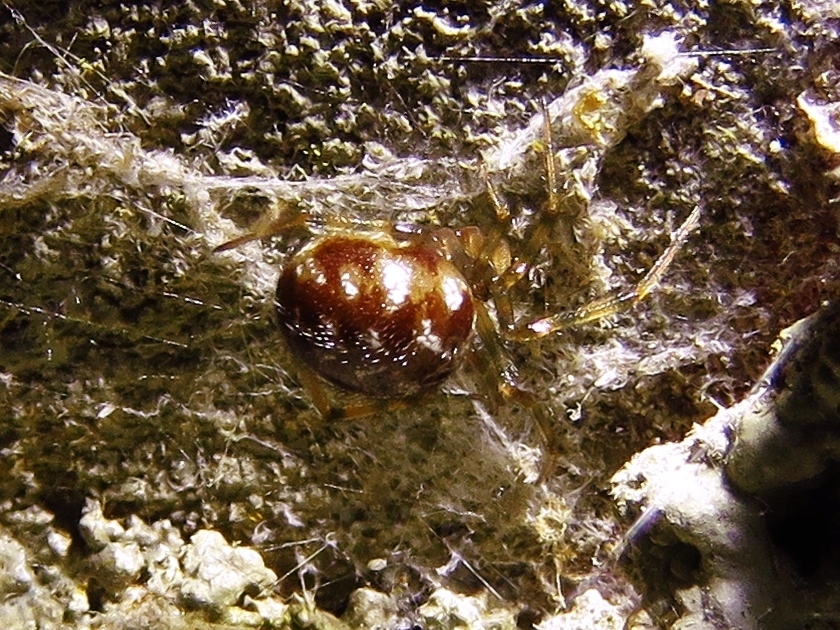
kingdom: Animalia
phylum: Arthropoda
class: Arachnida
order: Araneae
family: Theridiidae
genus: Steatoda
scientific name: Steatoda triangulosa
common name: Triangulate bud spider
